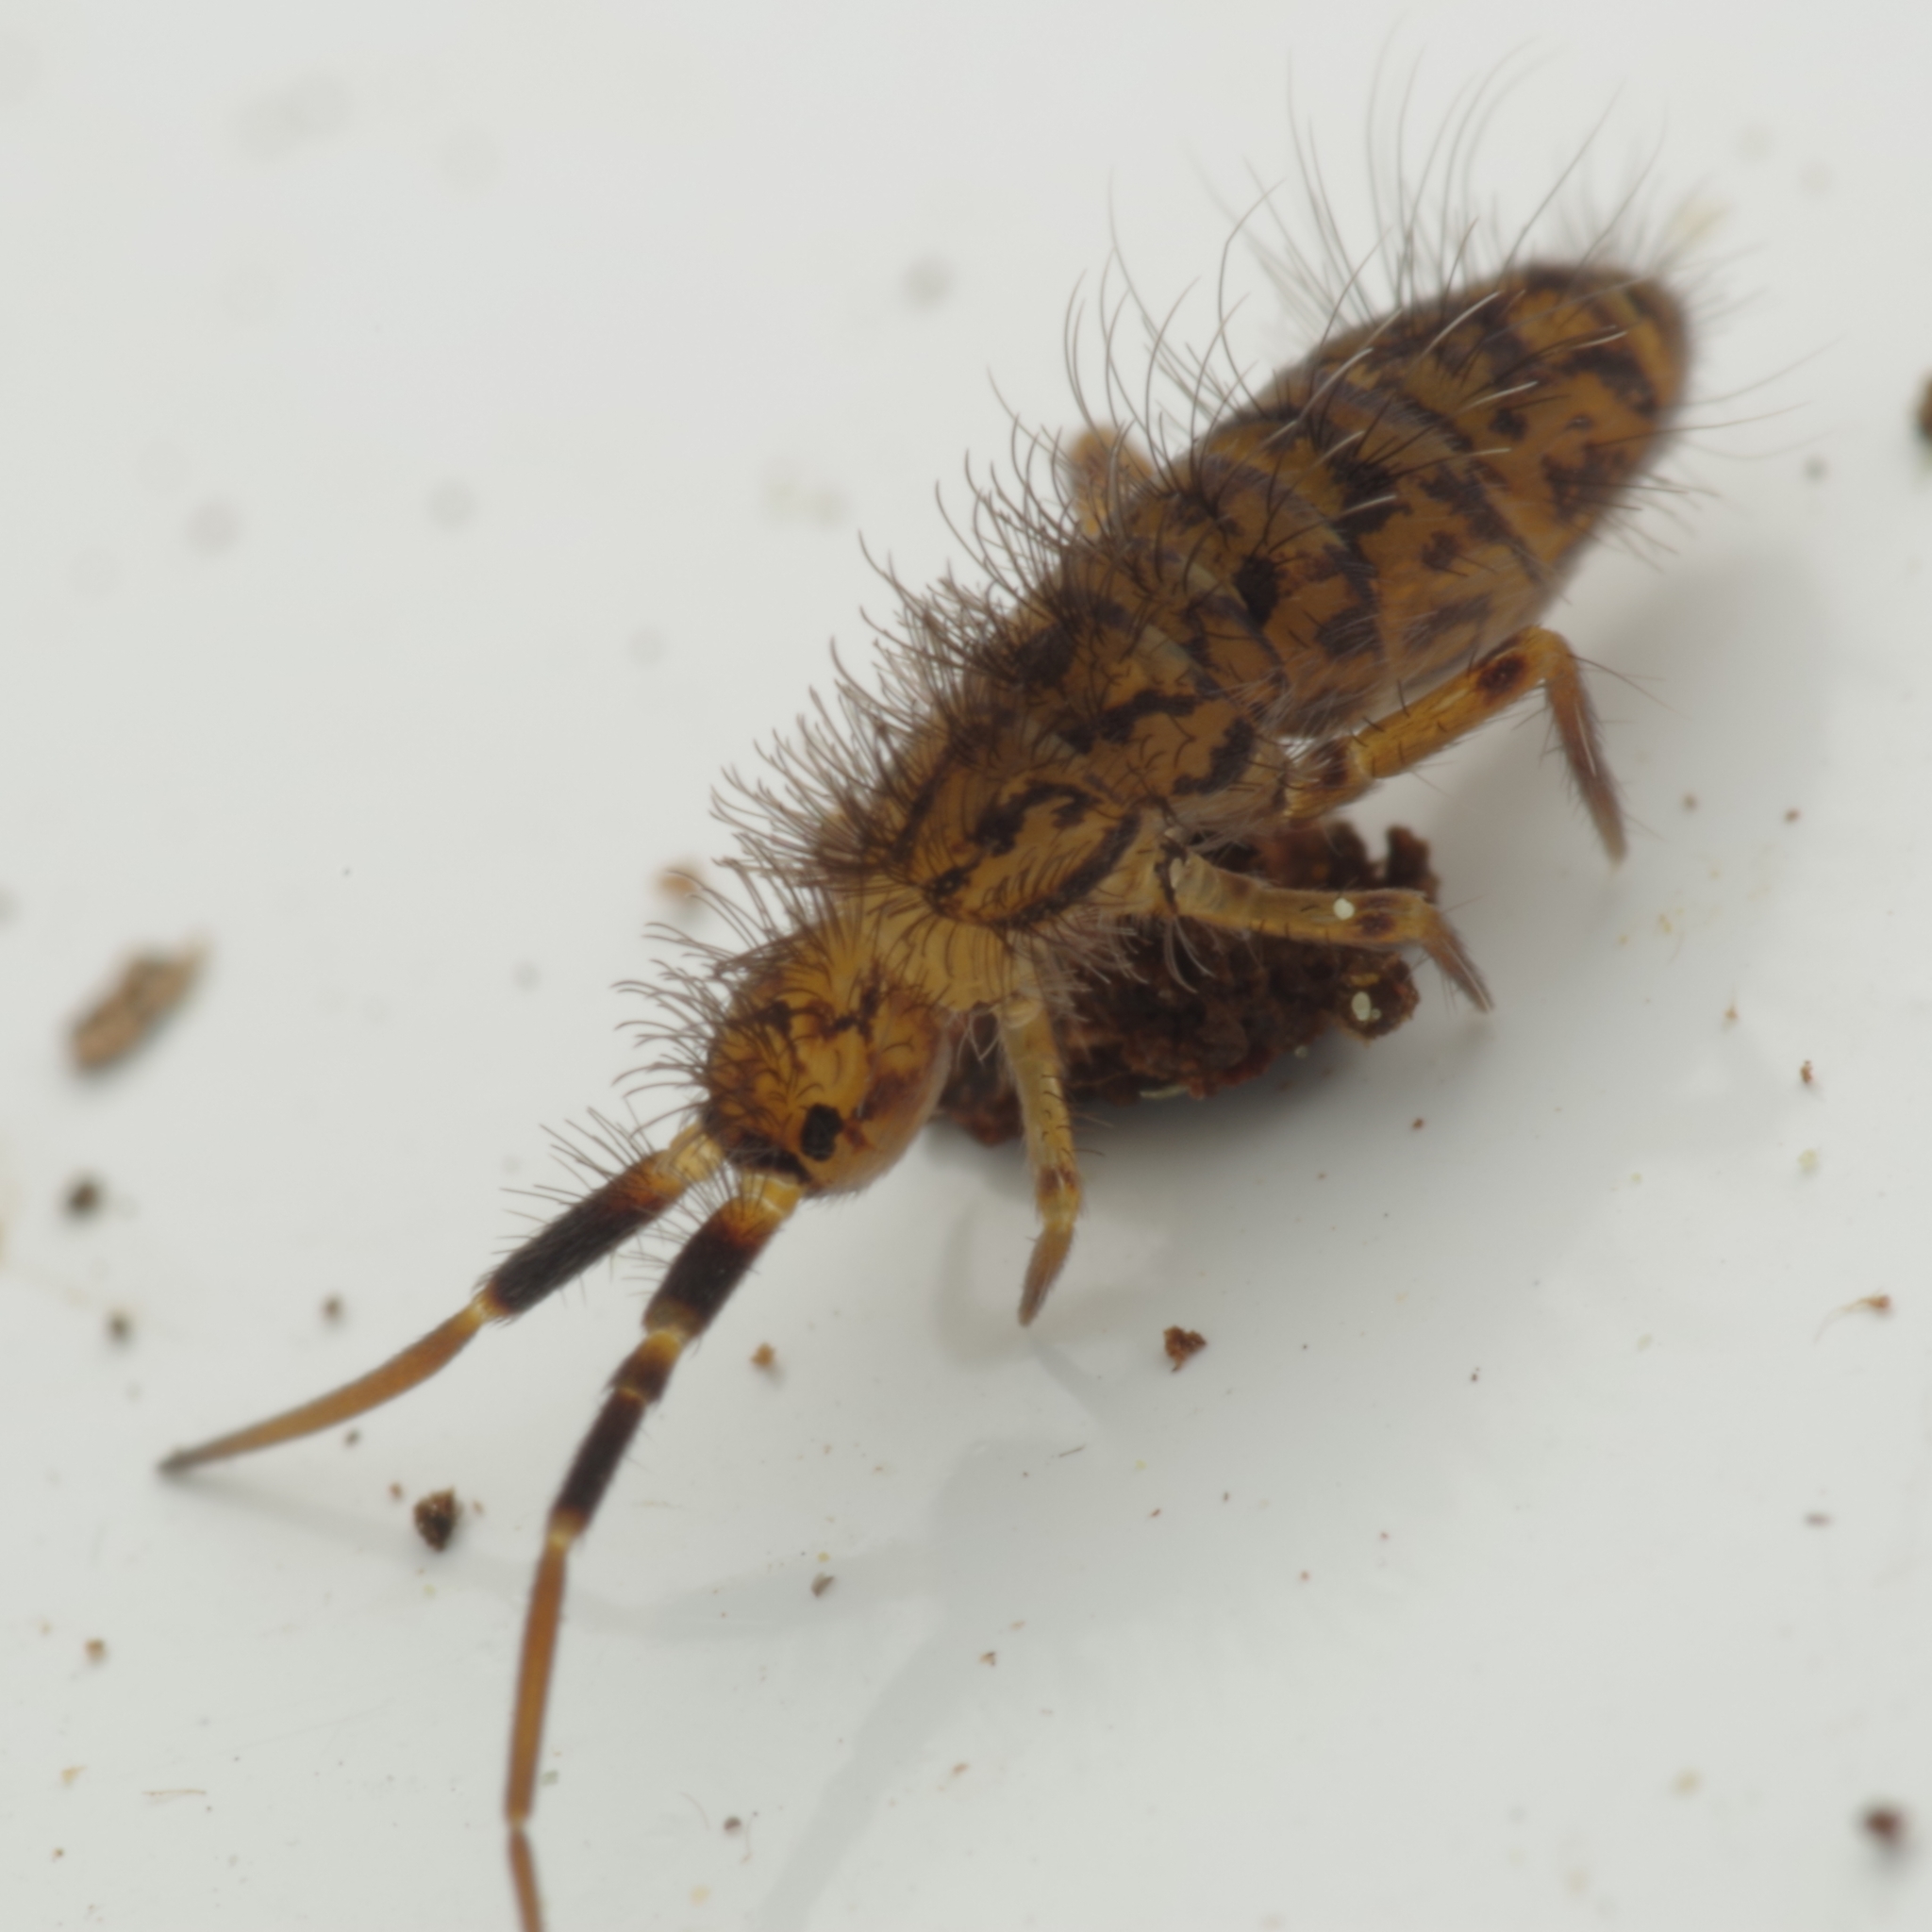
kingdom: Animalia
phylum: Arthropoda
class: Collembola
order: Entomobryomorpha
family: Orchesellidae
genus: Orchesella
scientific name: Orchesella villosa
